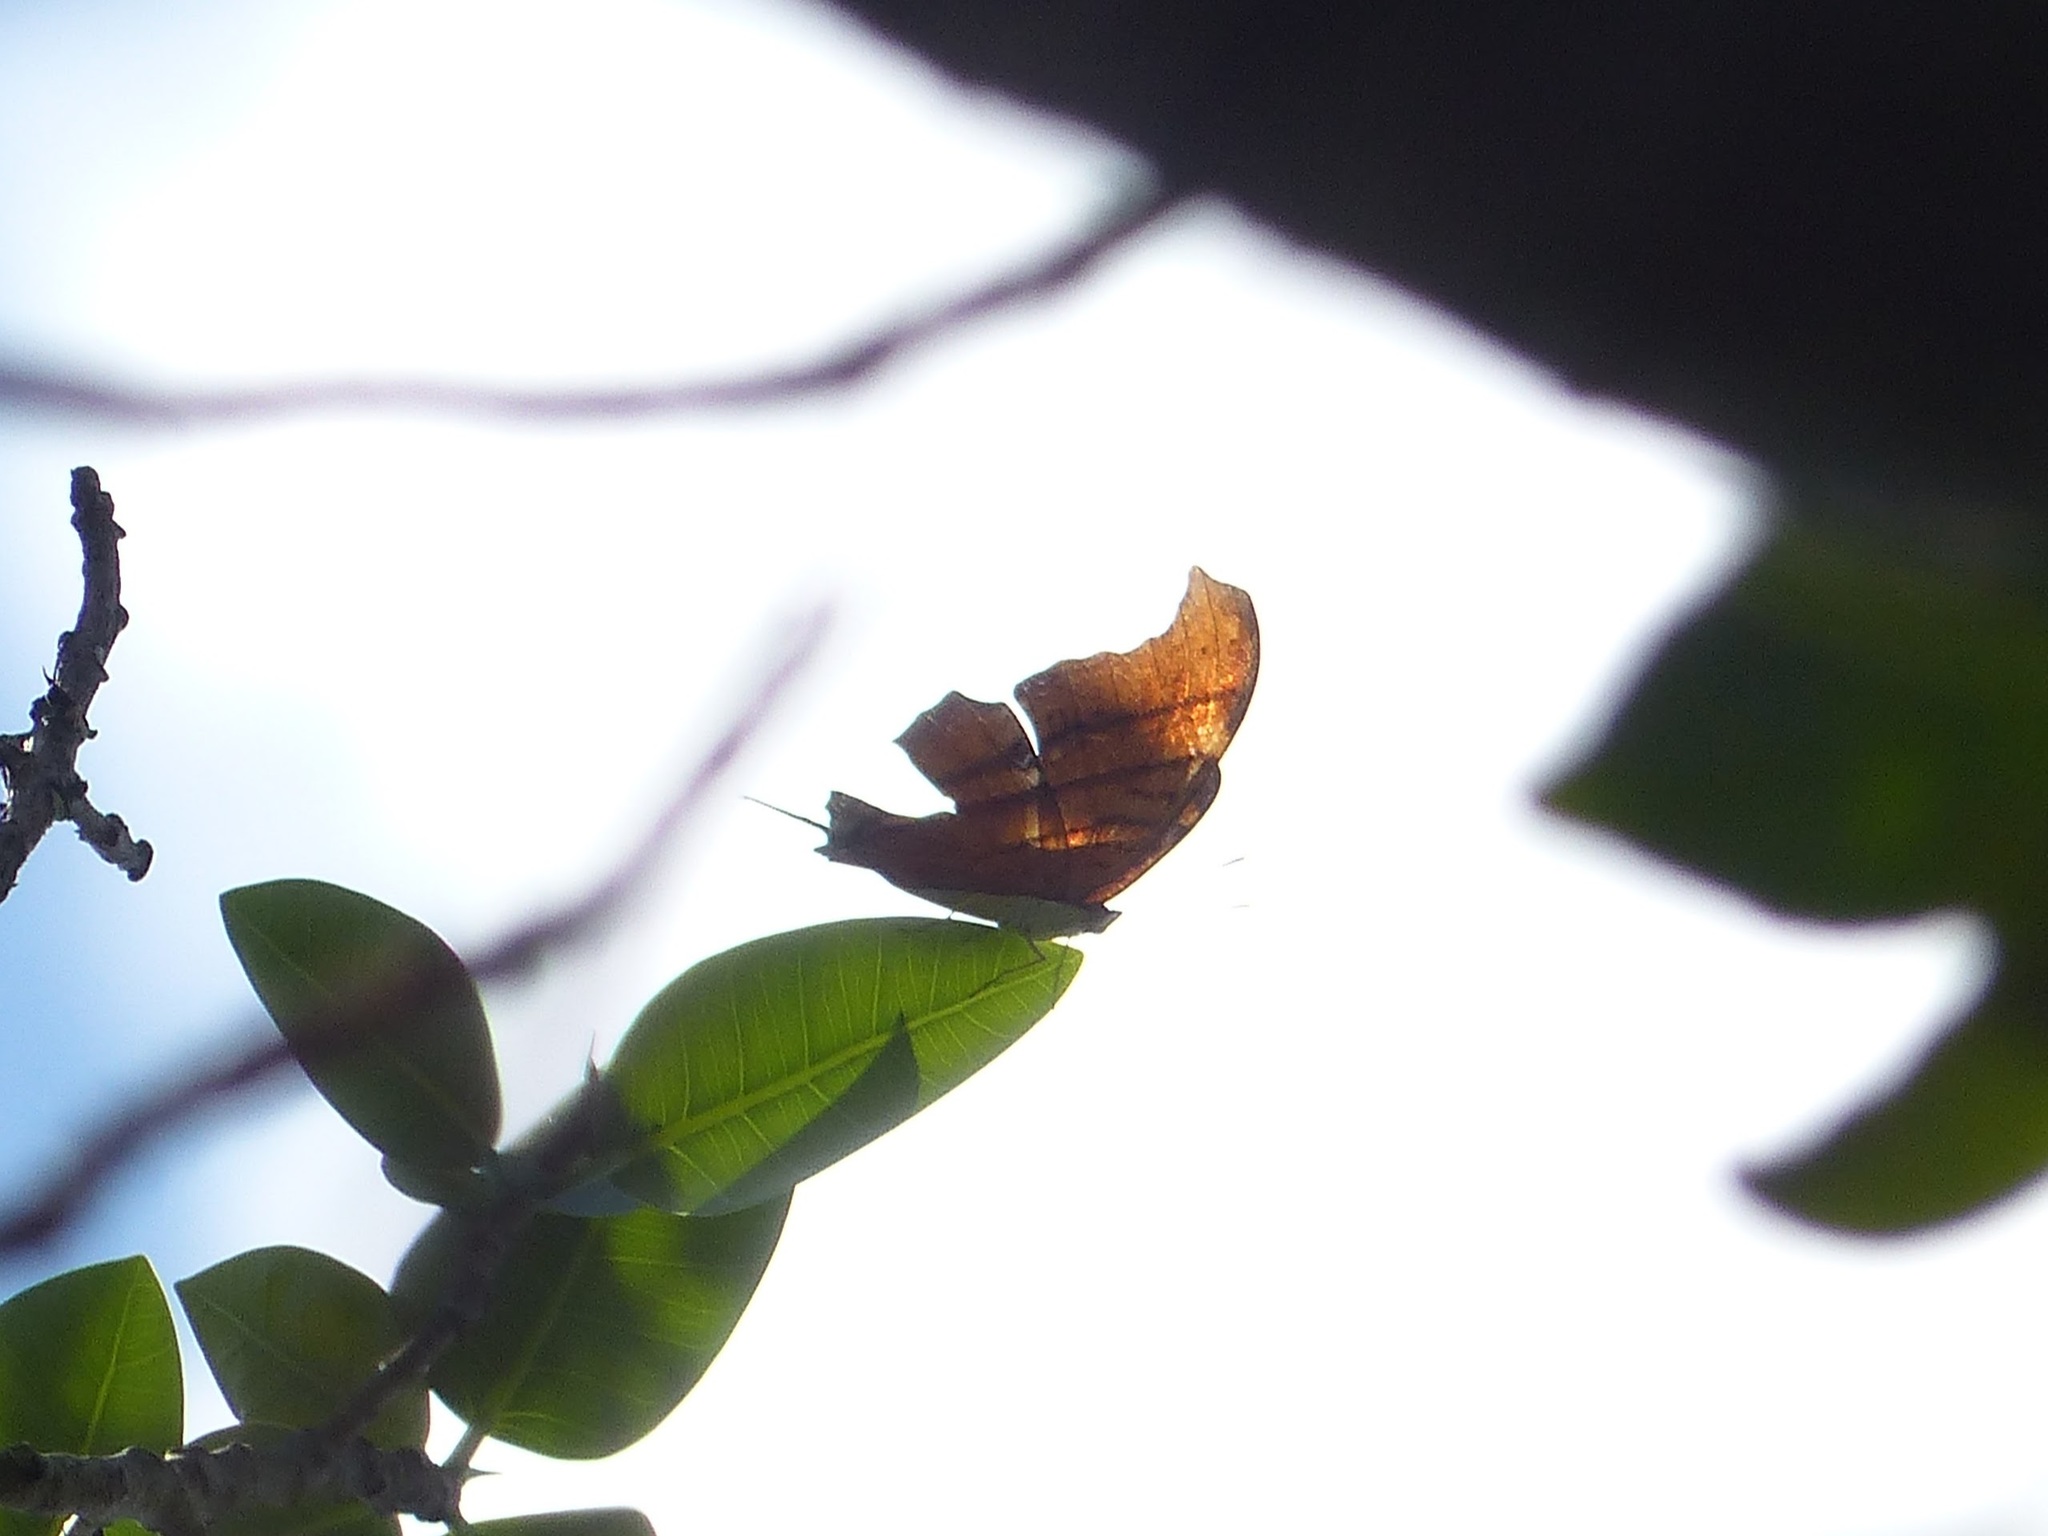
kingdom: Animalia
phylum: Arthropoda
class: Insecta
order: Lepidoptera
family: Nymphalidae
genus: Marpesia
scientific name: Marpesia petreus
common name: Red dagger wing
